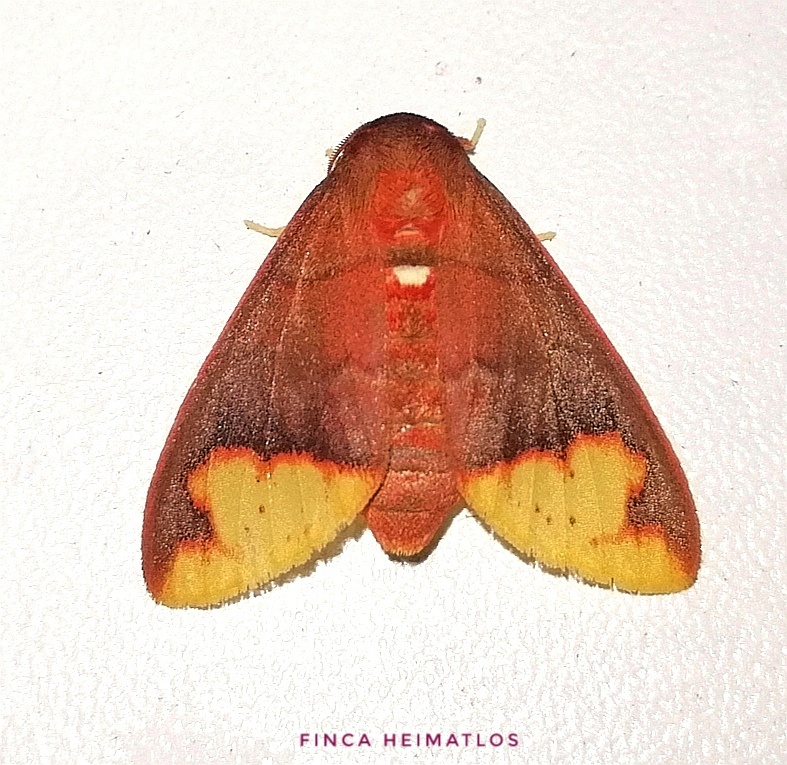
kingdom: Animalia
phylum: Arthropoda
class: Insecta
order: Lepidoptera
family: Erebidae
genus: Pseudepimolis
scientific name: Pseudepimolis incisa
